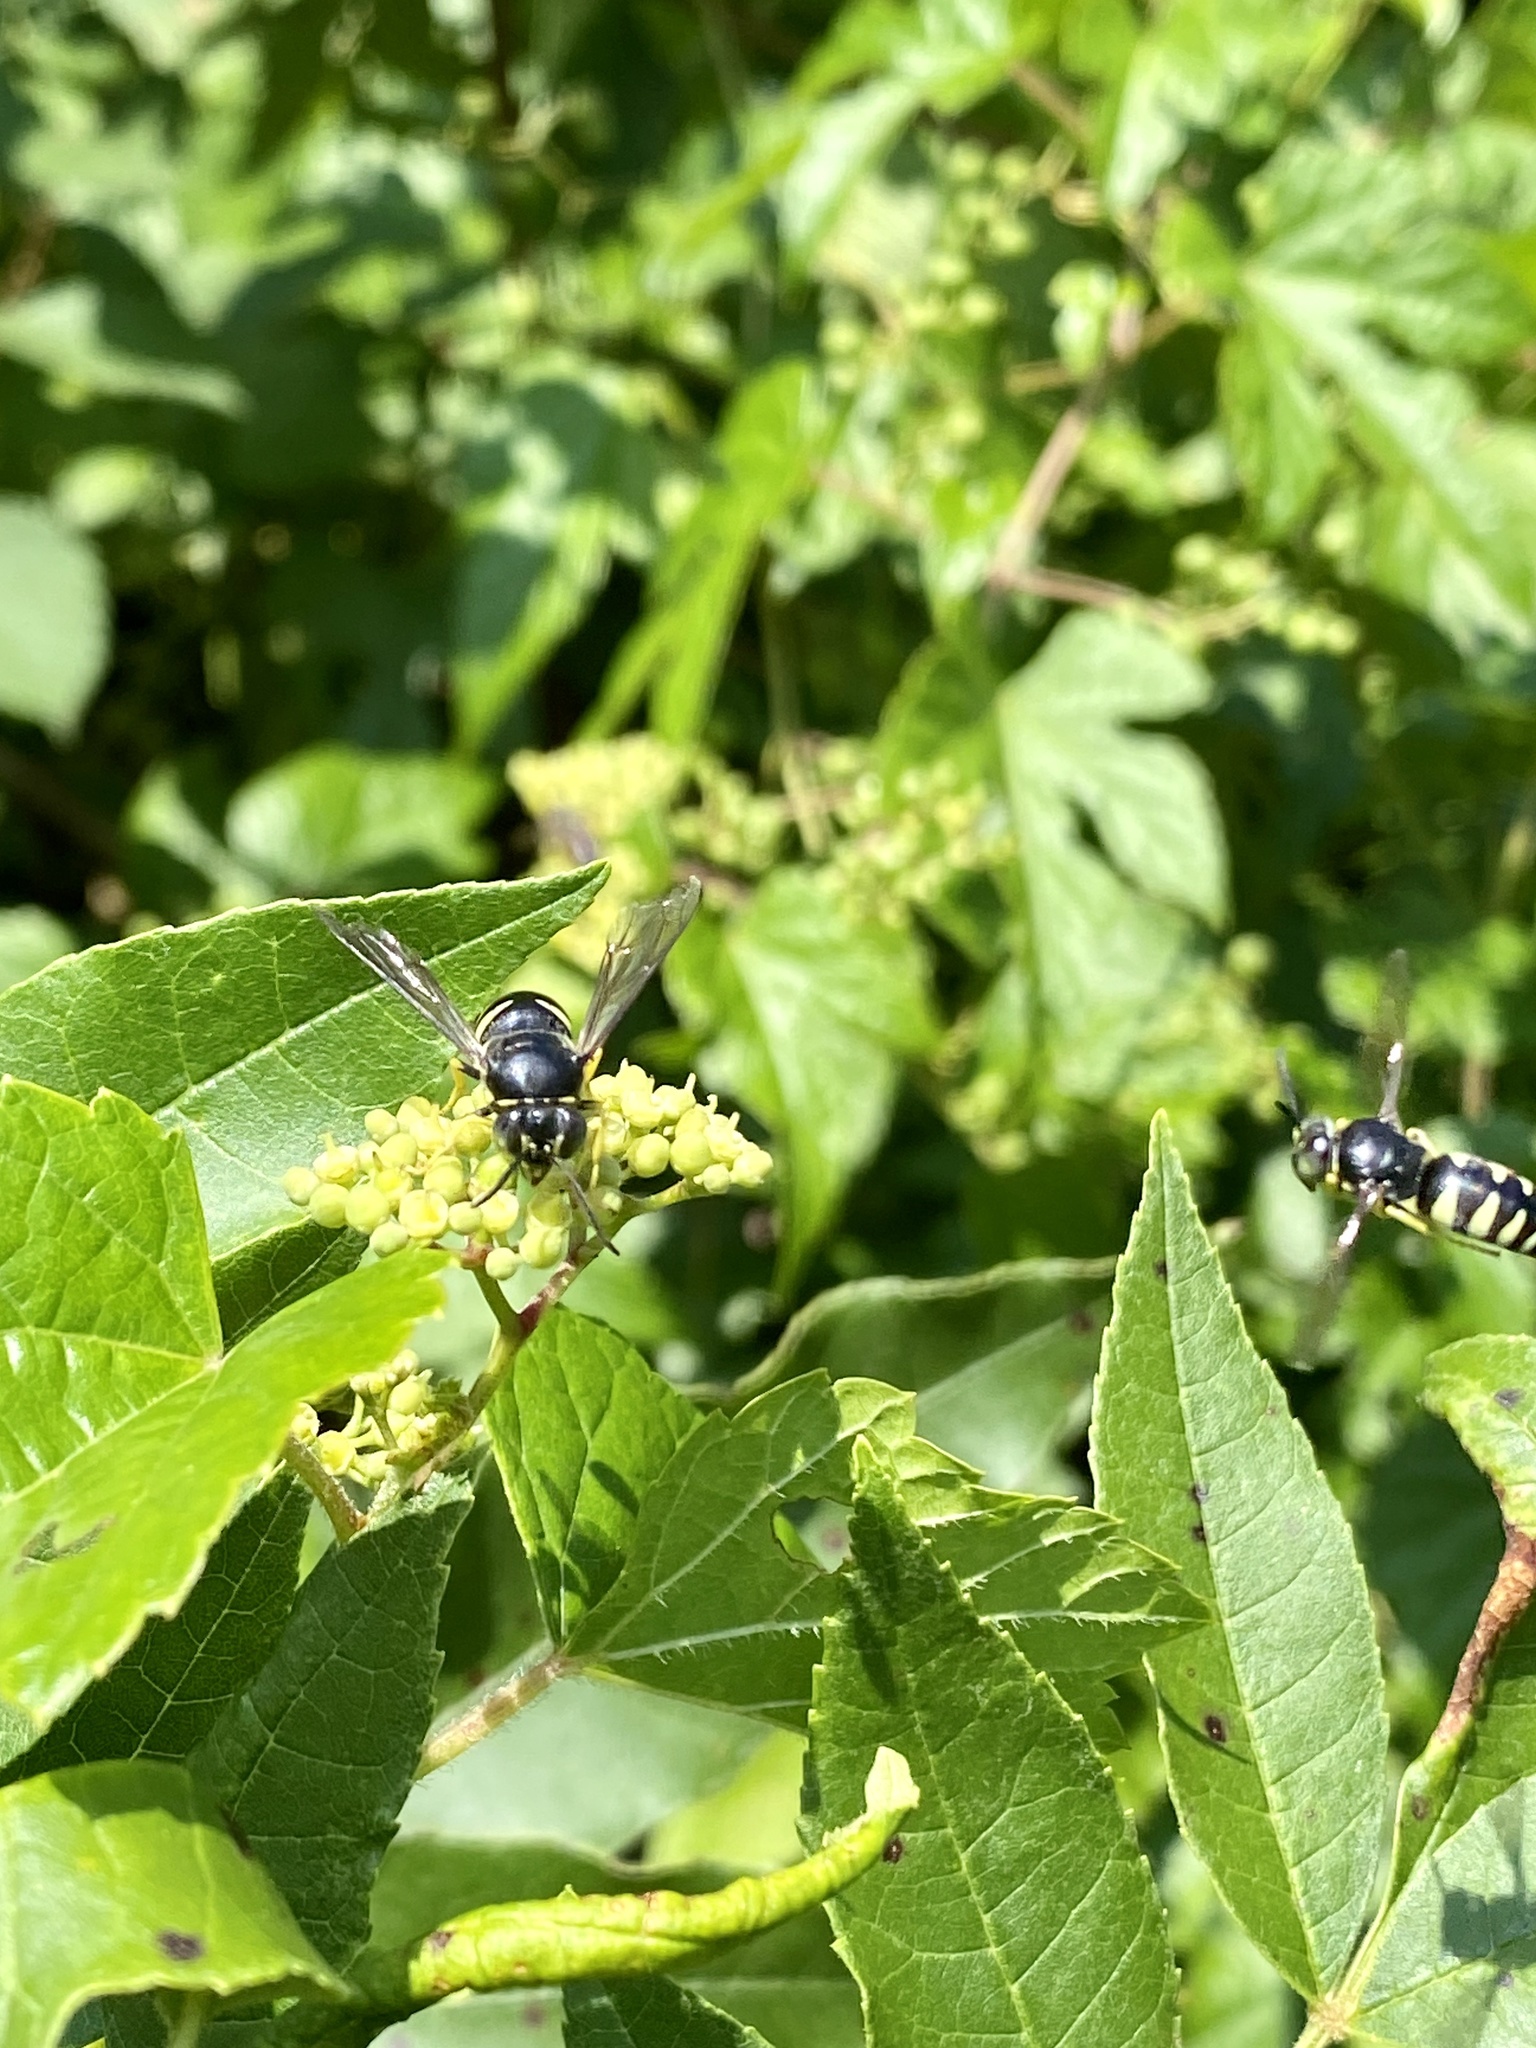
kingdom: Animalia
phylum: Arthropoda
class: Insecta
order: Hymenoptera
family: Crabronidae
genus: Bicyrtes
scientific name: Bicyrtes quadrifasciatus
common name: Four-banded stink bug hunter wasp
